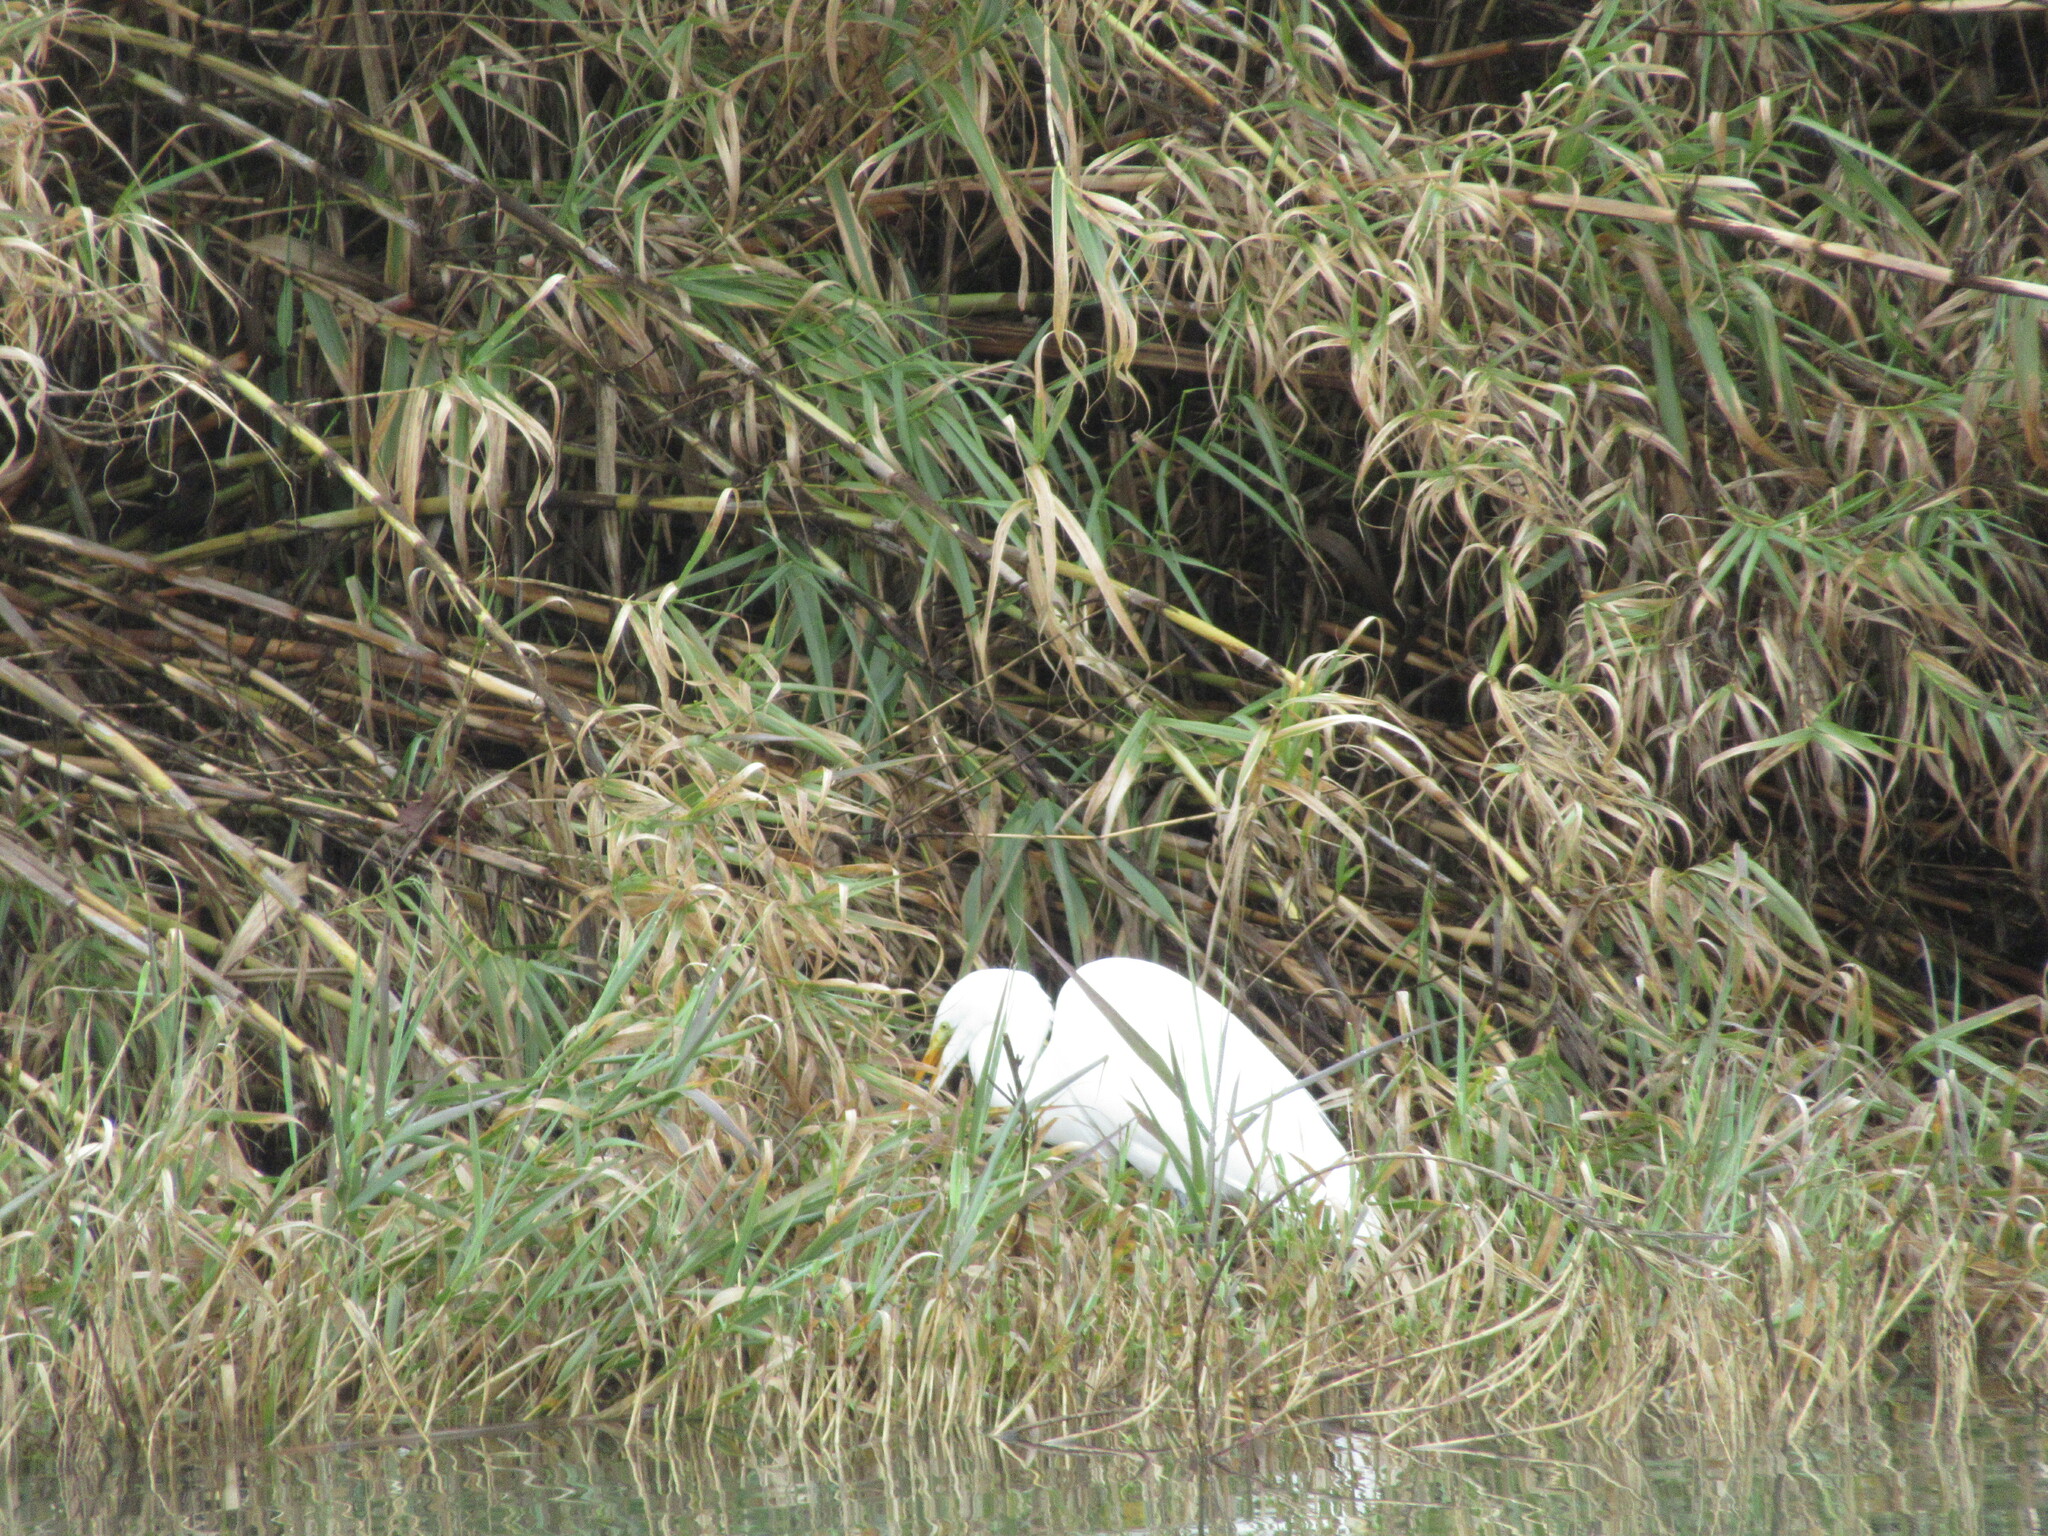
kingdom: Animalia
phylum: Chordata
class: Aves
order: Pelecaniformes
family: Ardeidae
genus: Ardea
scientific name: Ardea alba
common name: Great egret
